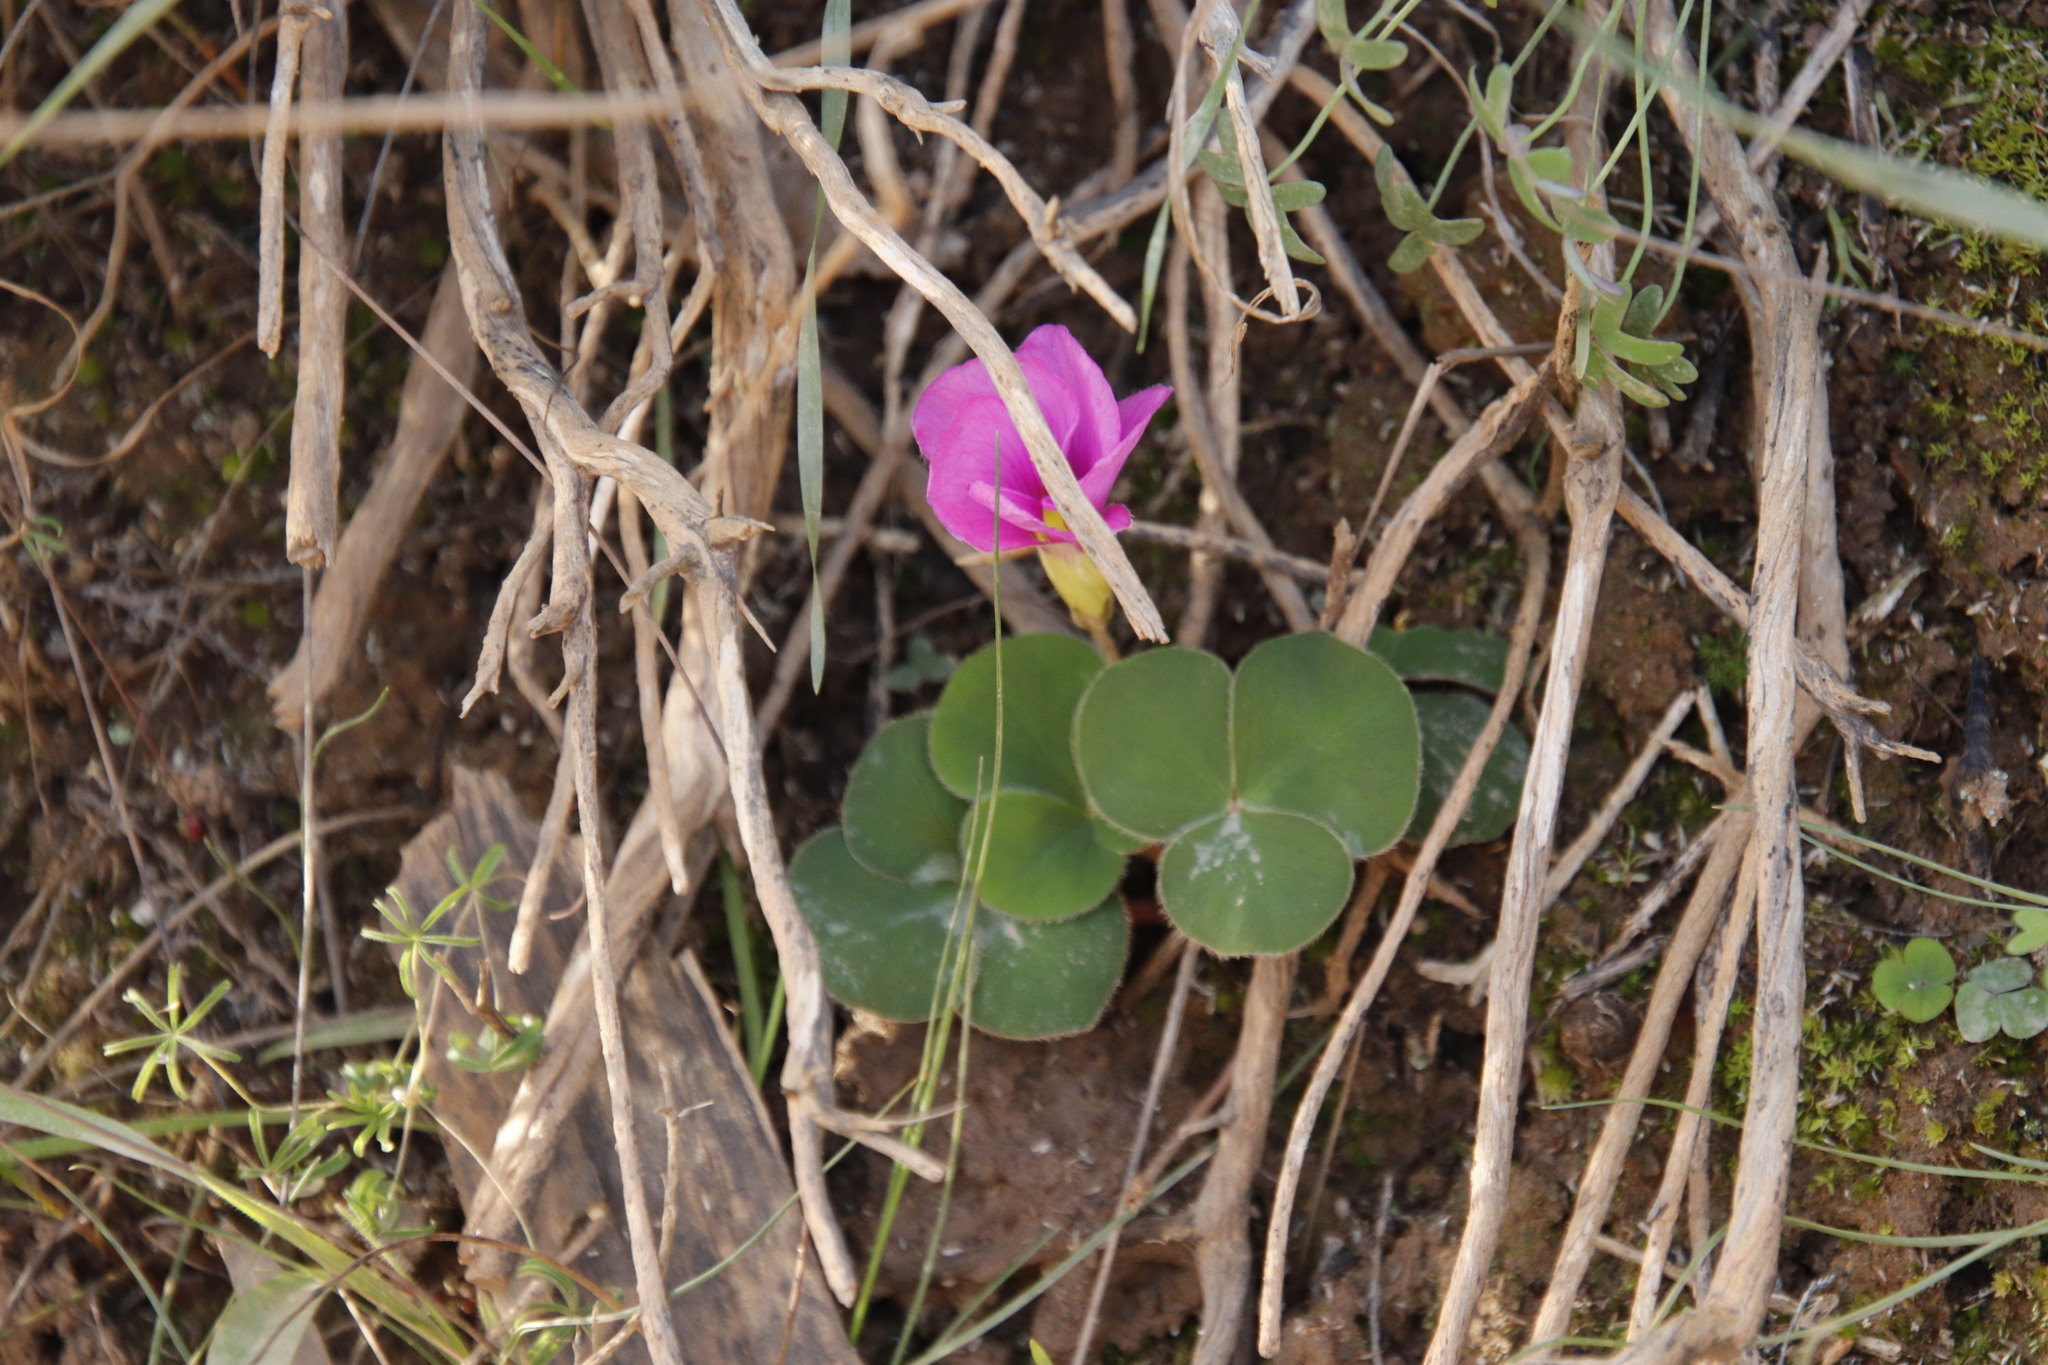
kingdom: Plantae
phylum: Tracheophyta
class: Magnoliopsida
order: Oxalidales
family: Oxalidaceae
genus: Oxalis
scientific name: Oxalis purpurea
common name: Purple woodsorrel
